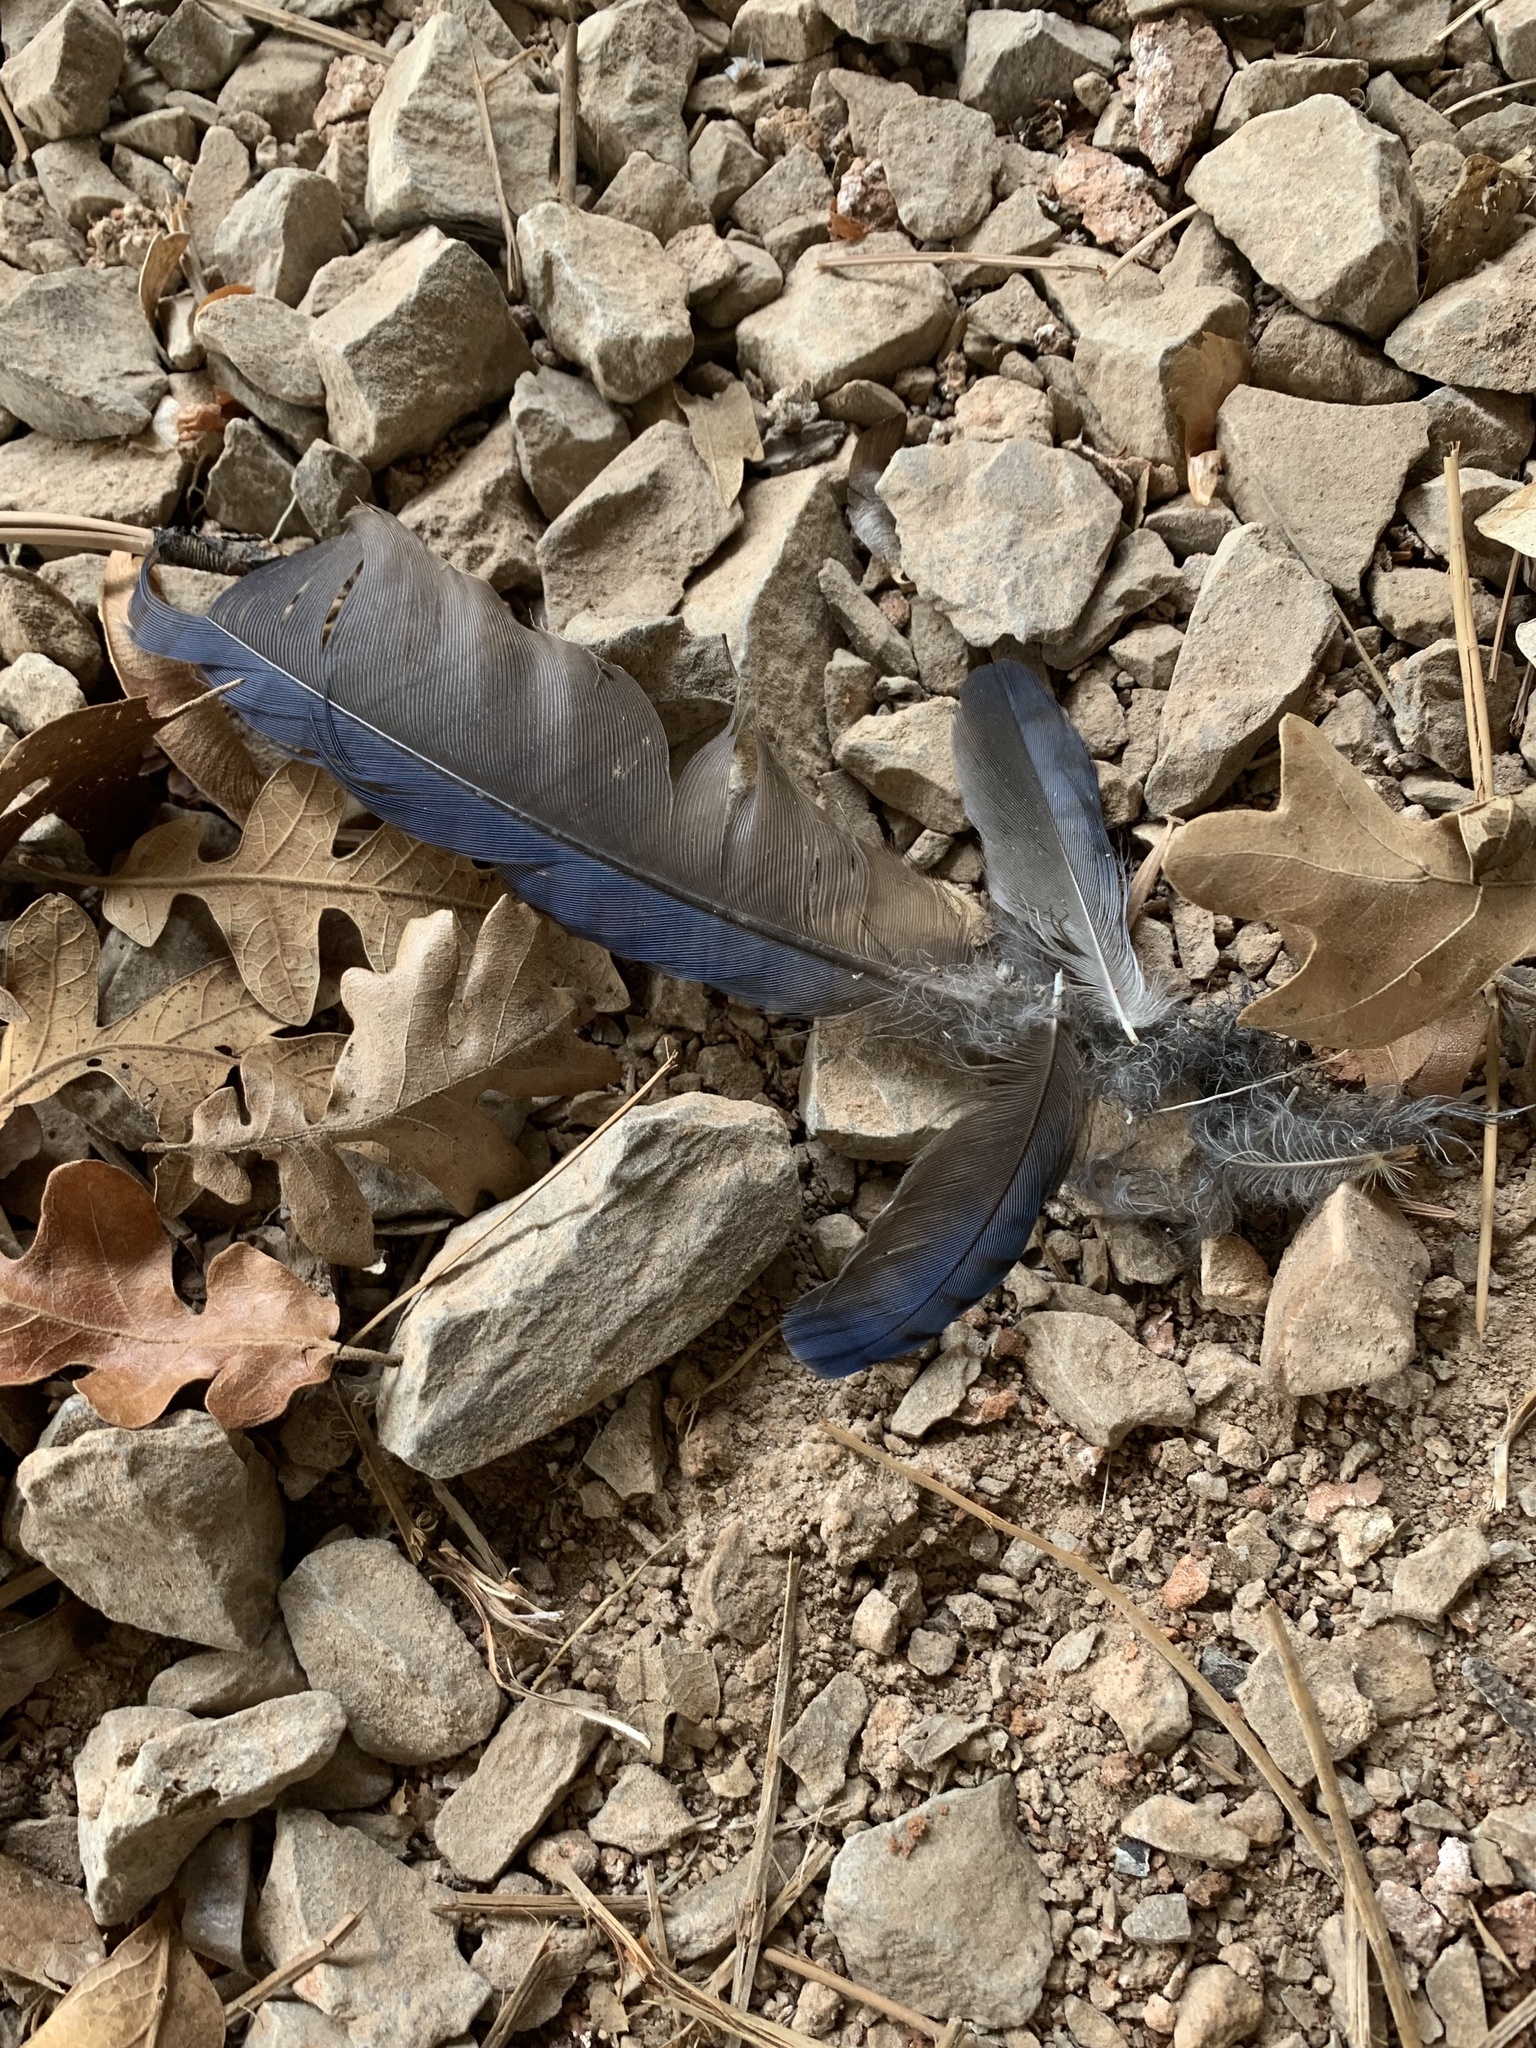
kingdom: Animalia
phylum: Chordata
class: Aves
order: Passeriformes
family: Corvidae
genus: Cyanocitta
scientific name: Cyanocitta stelleri
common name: Steller's jay
